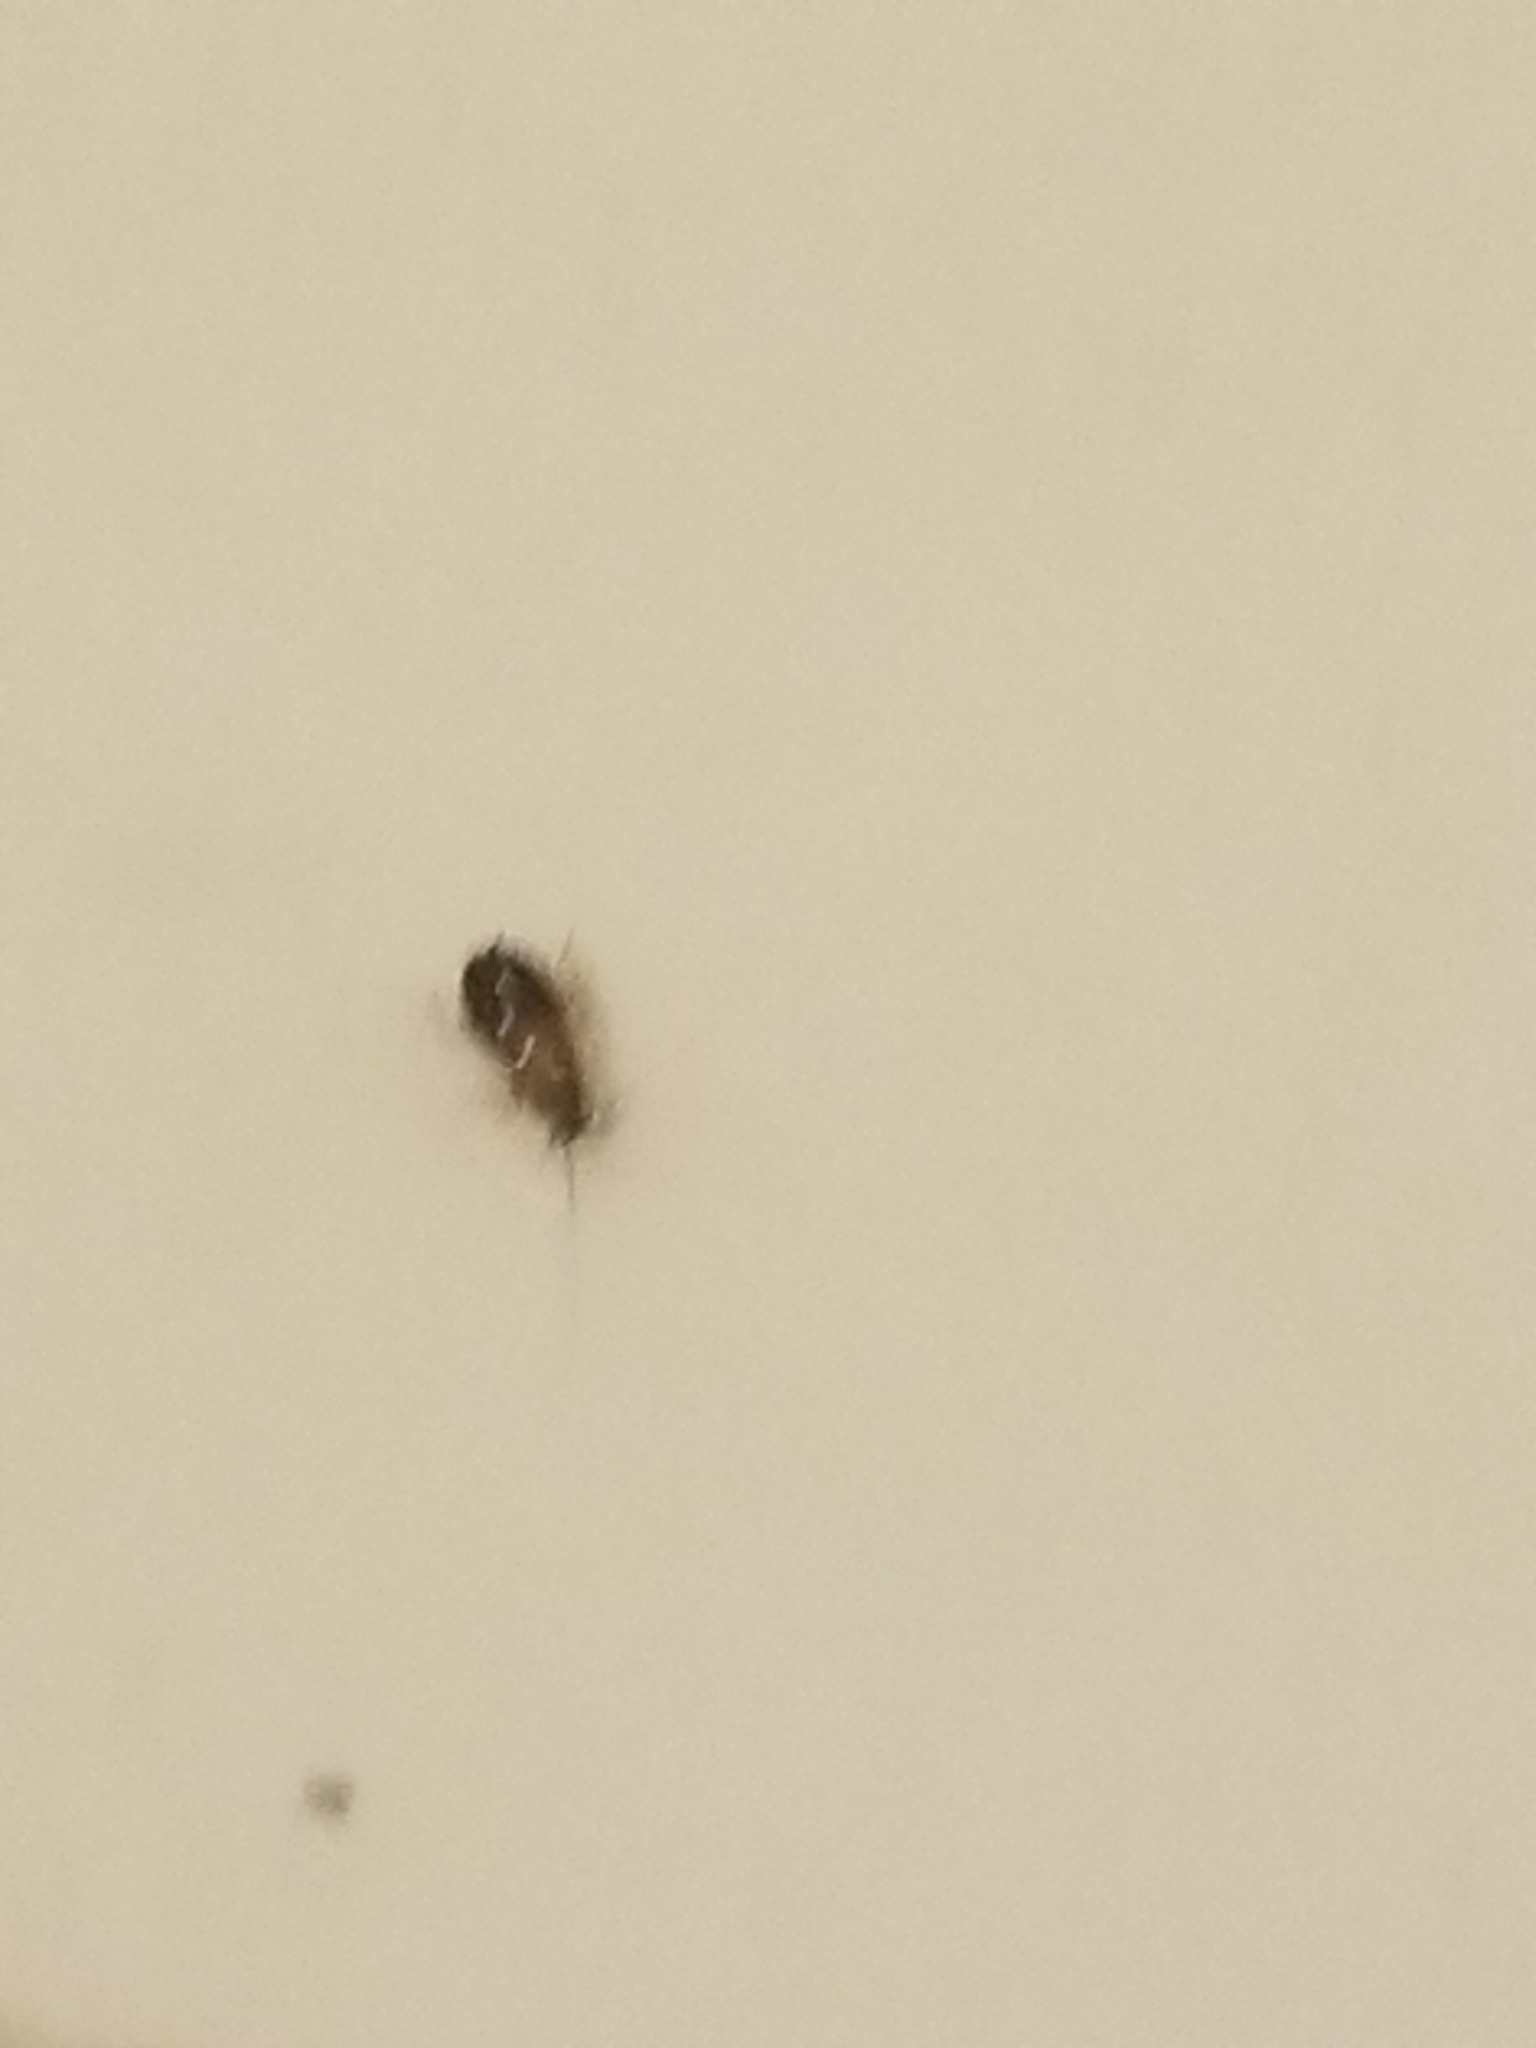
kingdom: Animalia
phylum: Arthropoda
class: Insecta
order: Blattodea
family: Ectobiidae
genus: Blattella
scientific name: Blattella germanica
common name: German cockroach
